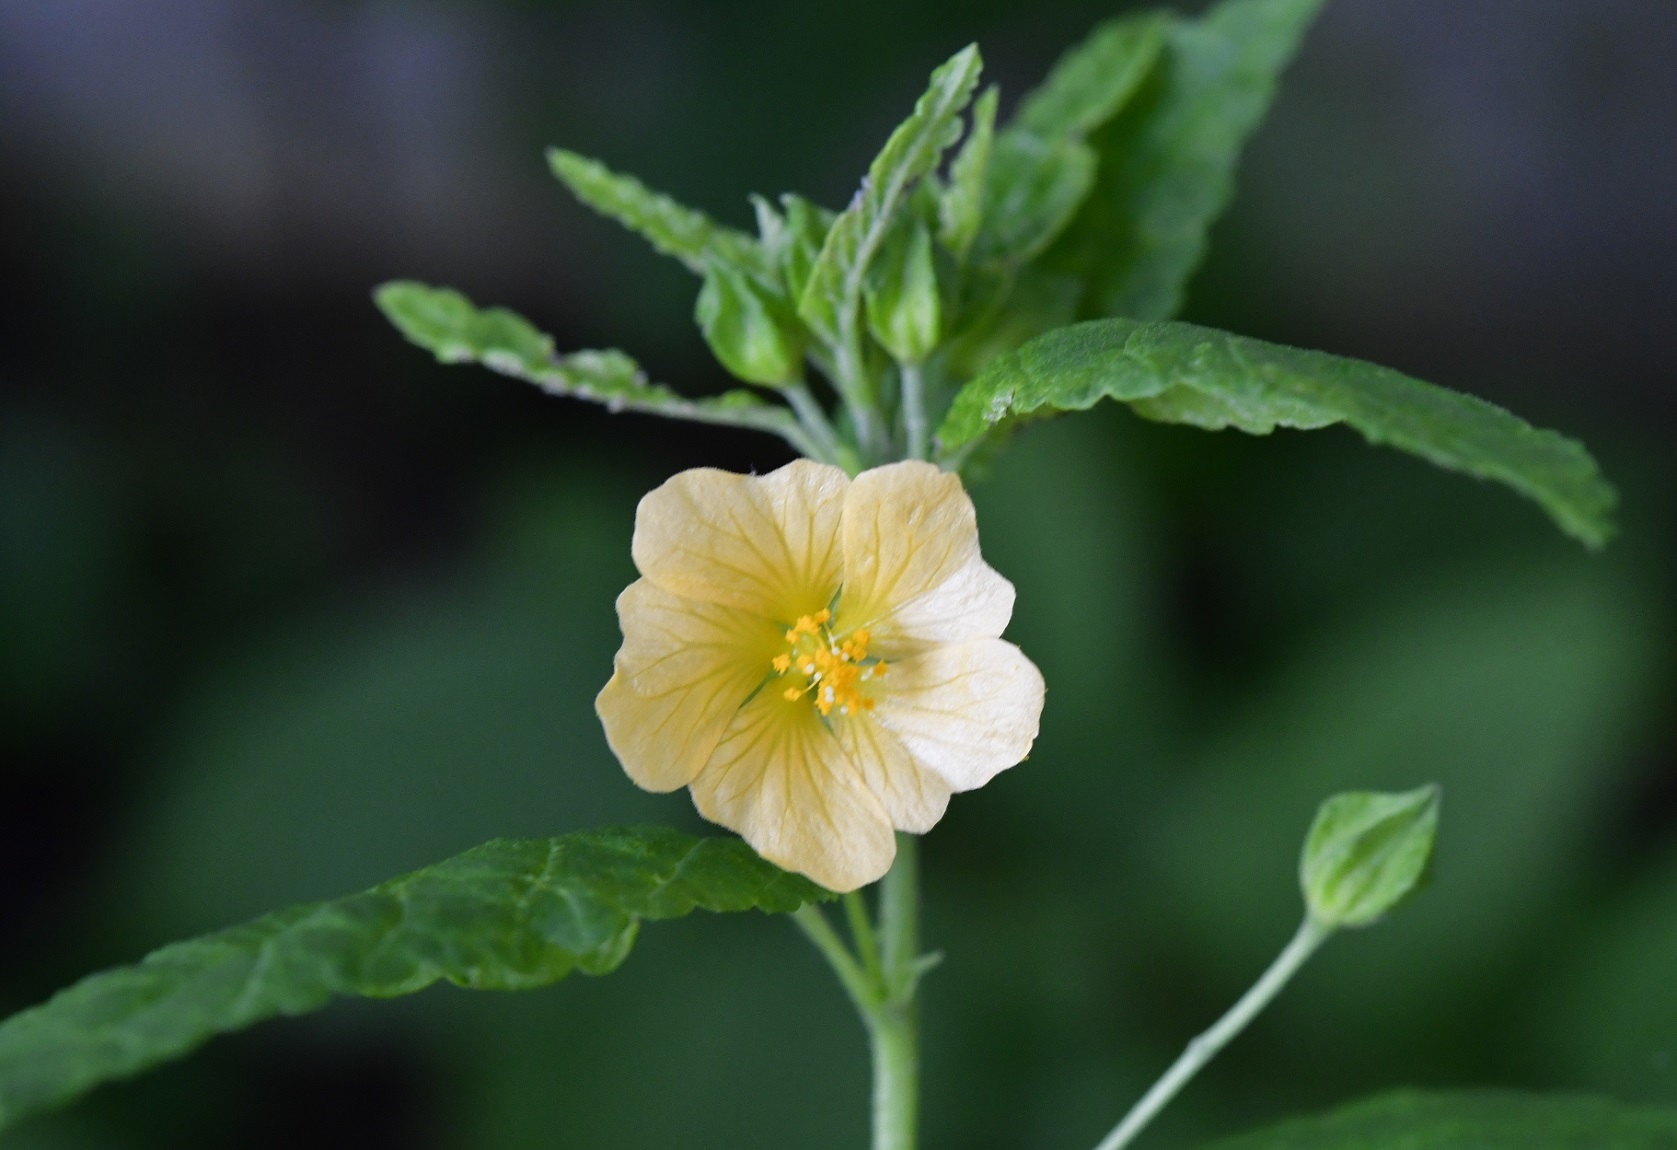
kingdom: Plantae
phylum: Tracheophyta
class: Magnoliopsida
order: Malvales
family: Malvaceae
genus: Sida
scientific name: Sida acuta
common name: Common wireweed
